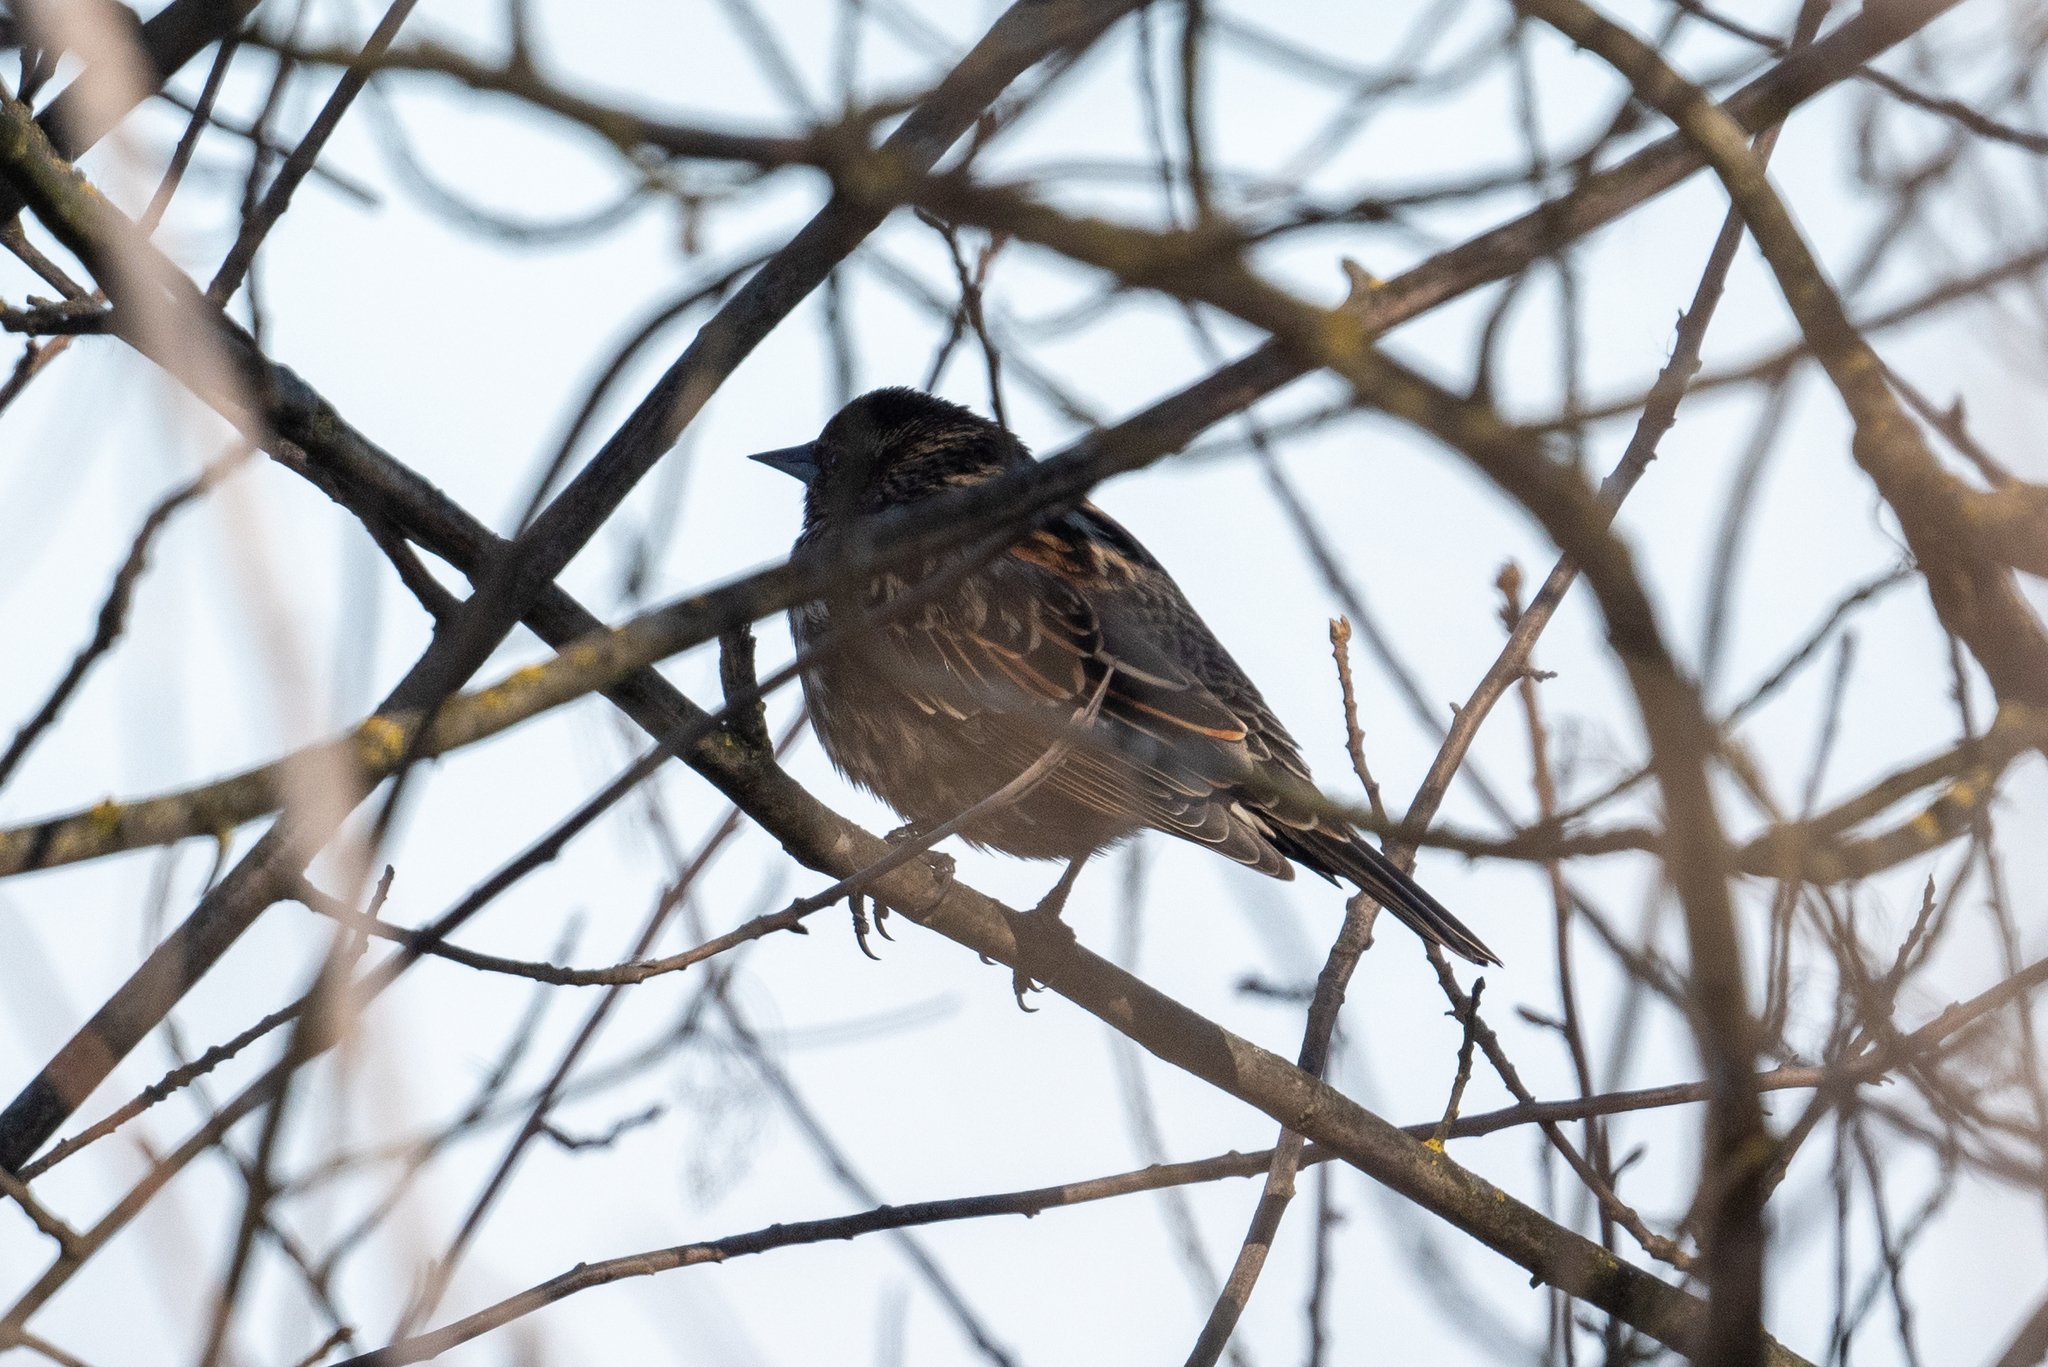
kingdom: Animalia
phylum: Chordata
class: Aves
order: Passeriformes
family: Icteridae
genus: Agelaius
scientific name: Agelaius phoeniceus
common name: Red-winged blackbird
